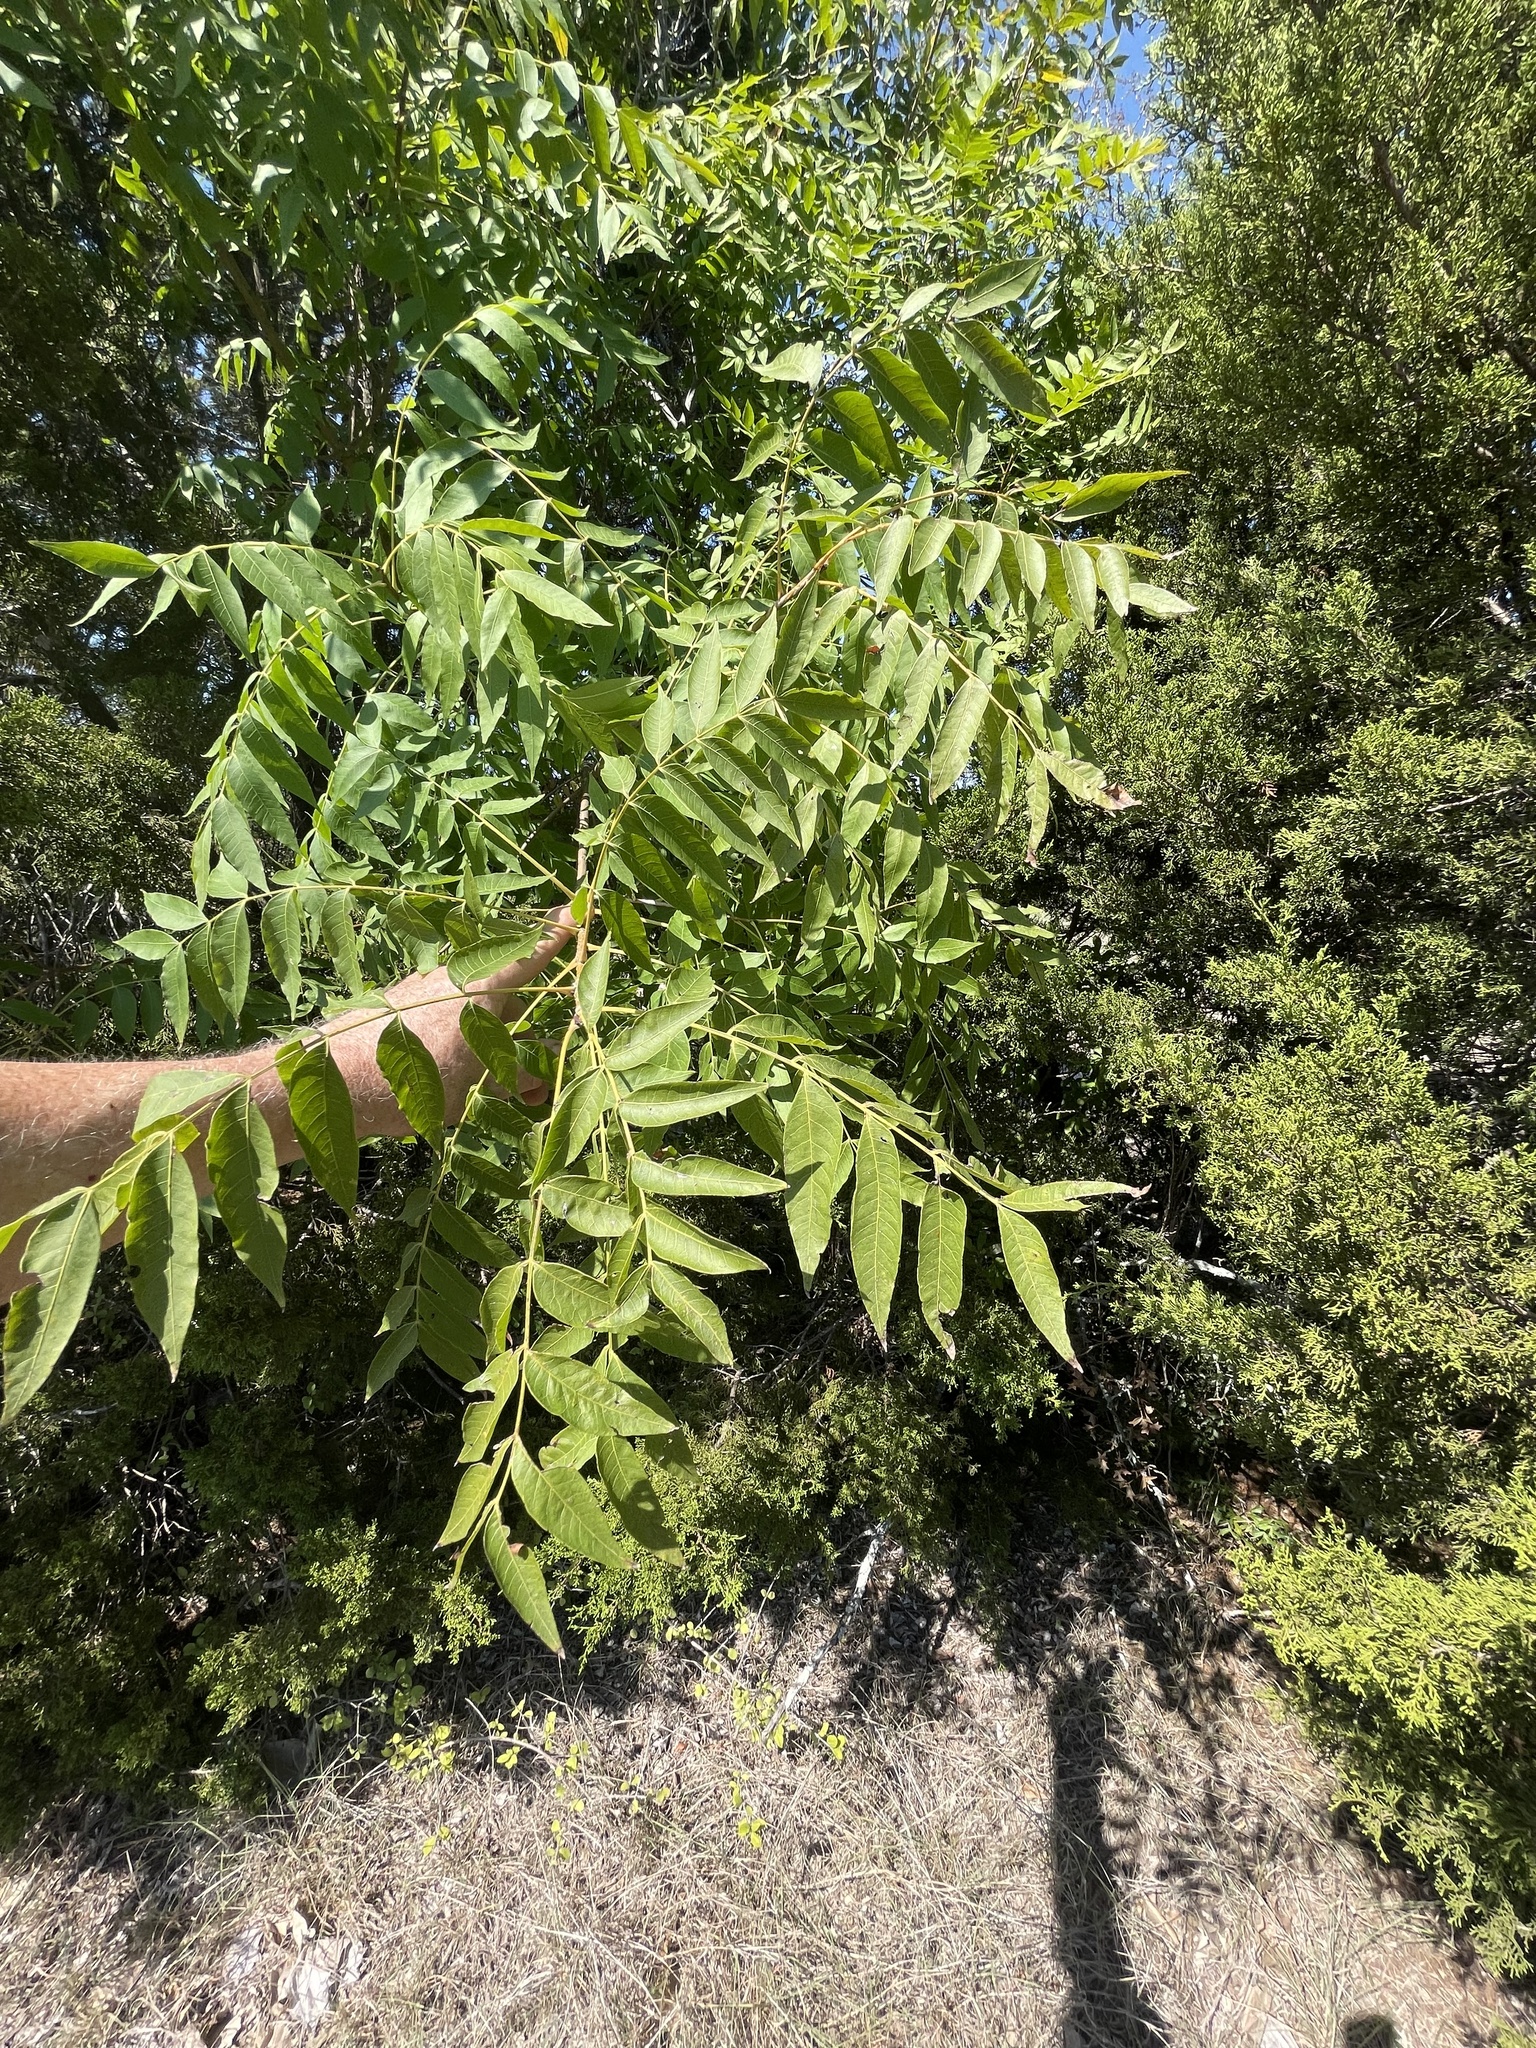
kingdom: Plantae
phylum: Tracheophyta
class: Magnoliopsida
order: Sapindales
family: Anacardiaceae
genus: Pistacia
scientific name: Pistacia chinensis
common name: Chinese pistache
